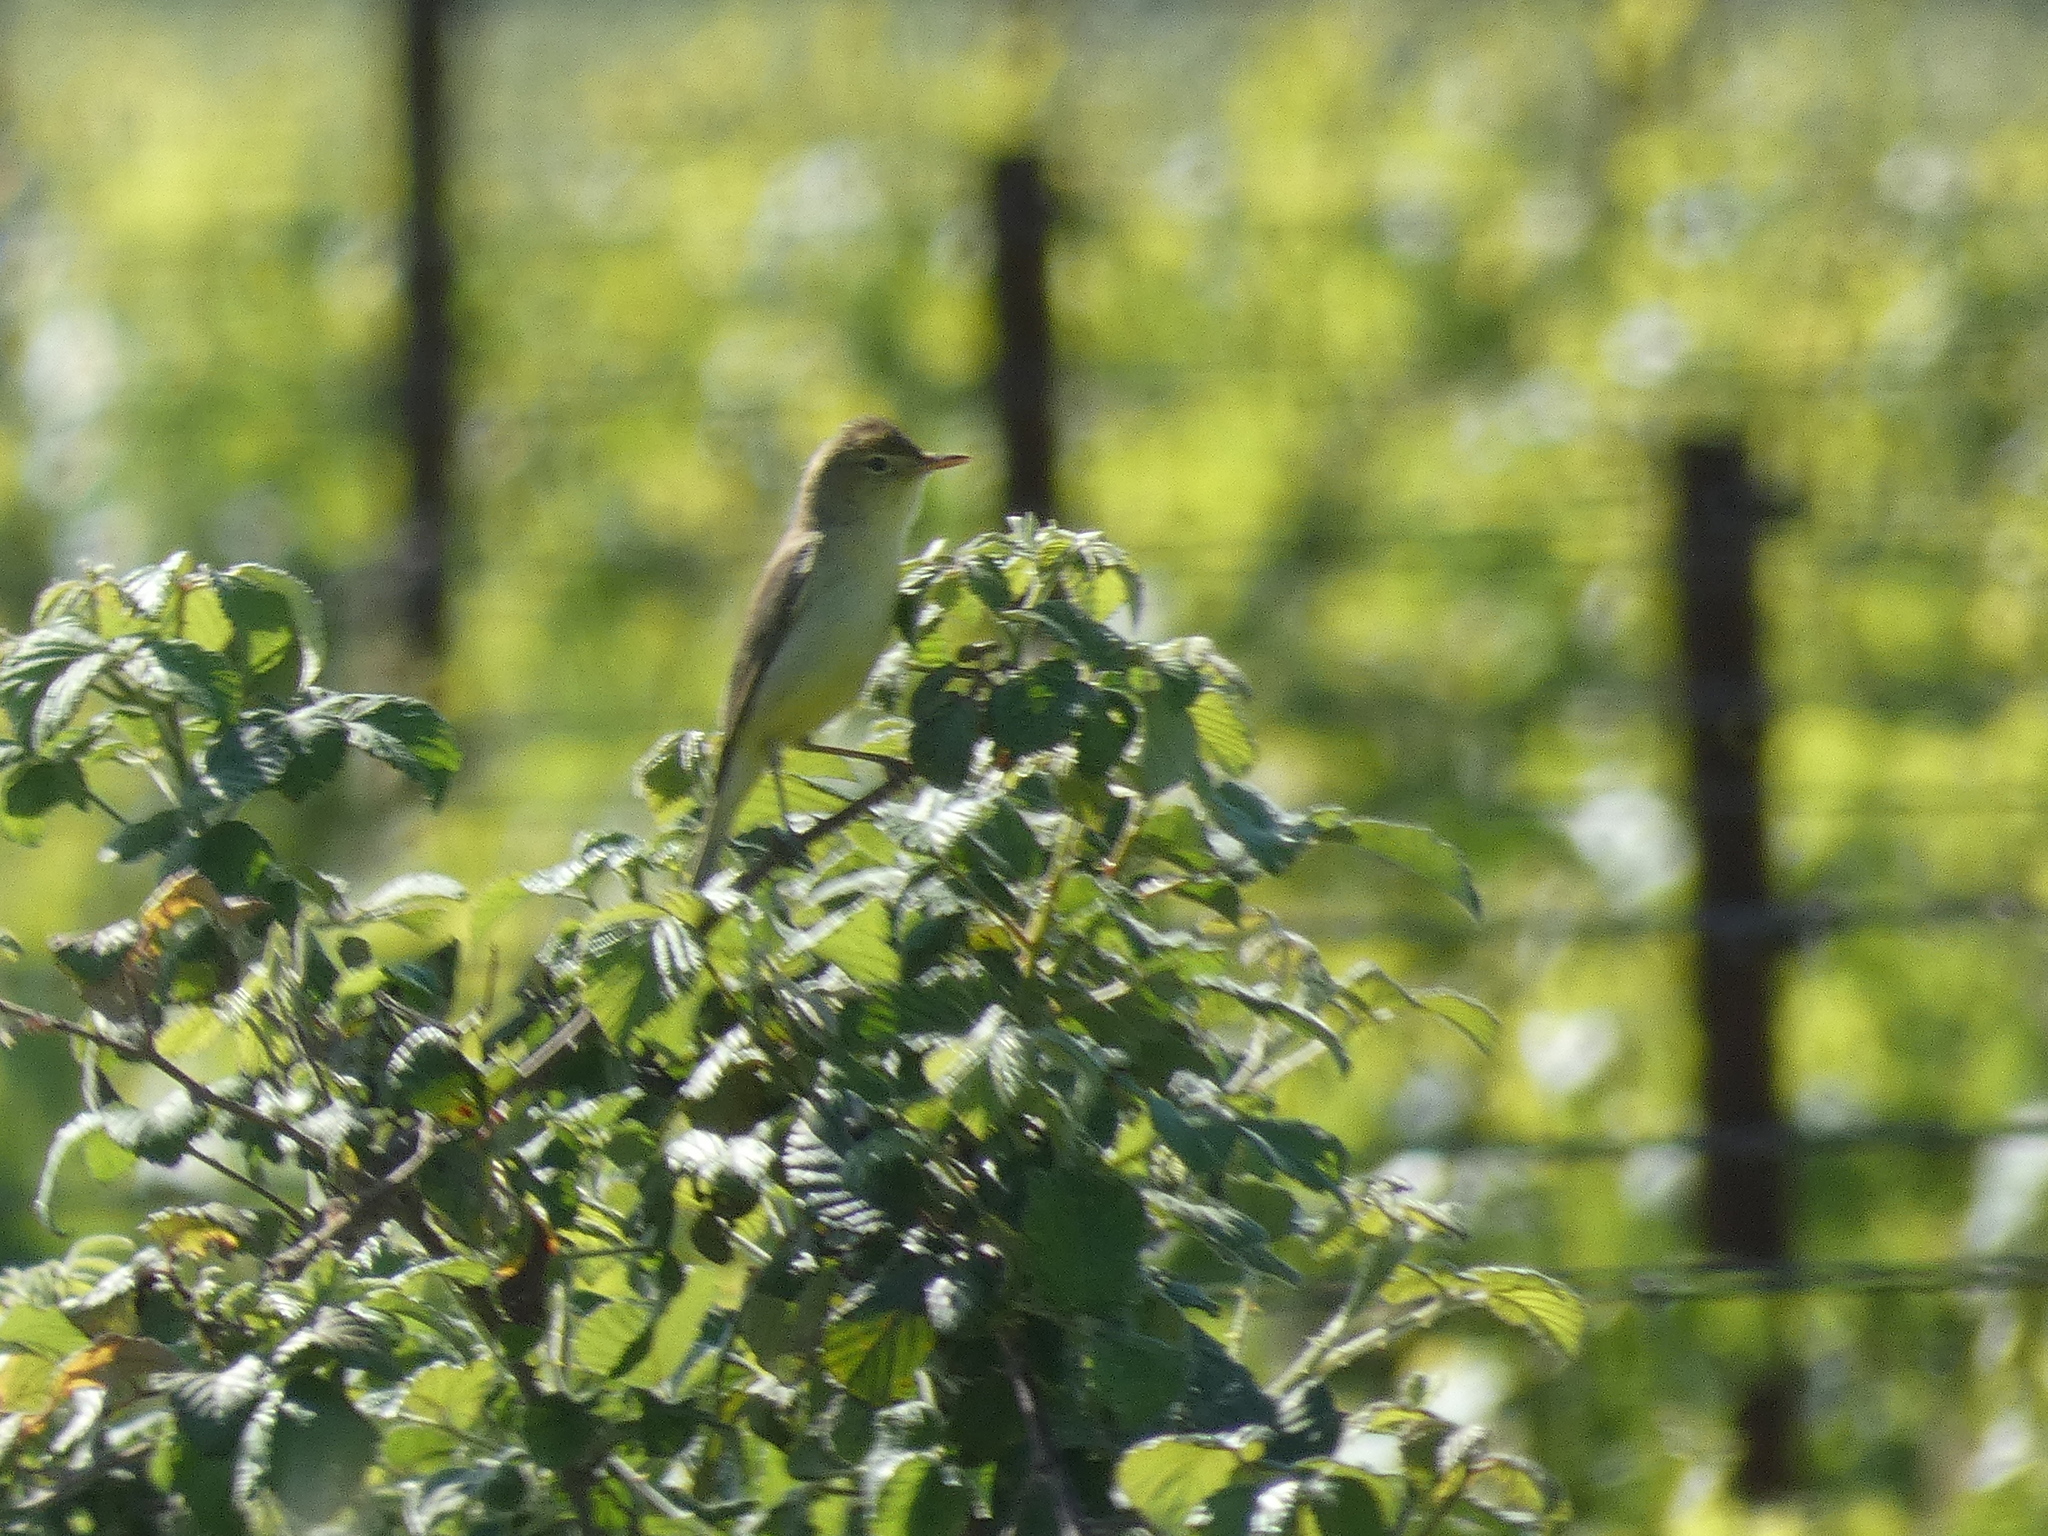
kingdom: Animalia
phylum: Chordata
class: Aves
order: Passeriformes
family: Acrocephalidae
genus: Hippolais
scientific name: Hippolais polyglotta
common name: Melodious warbler
